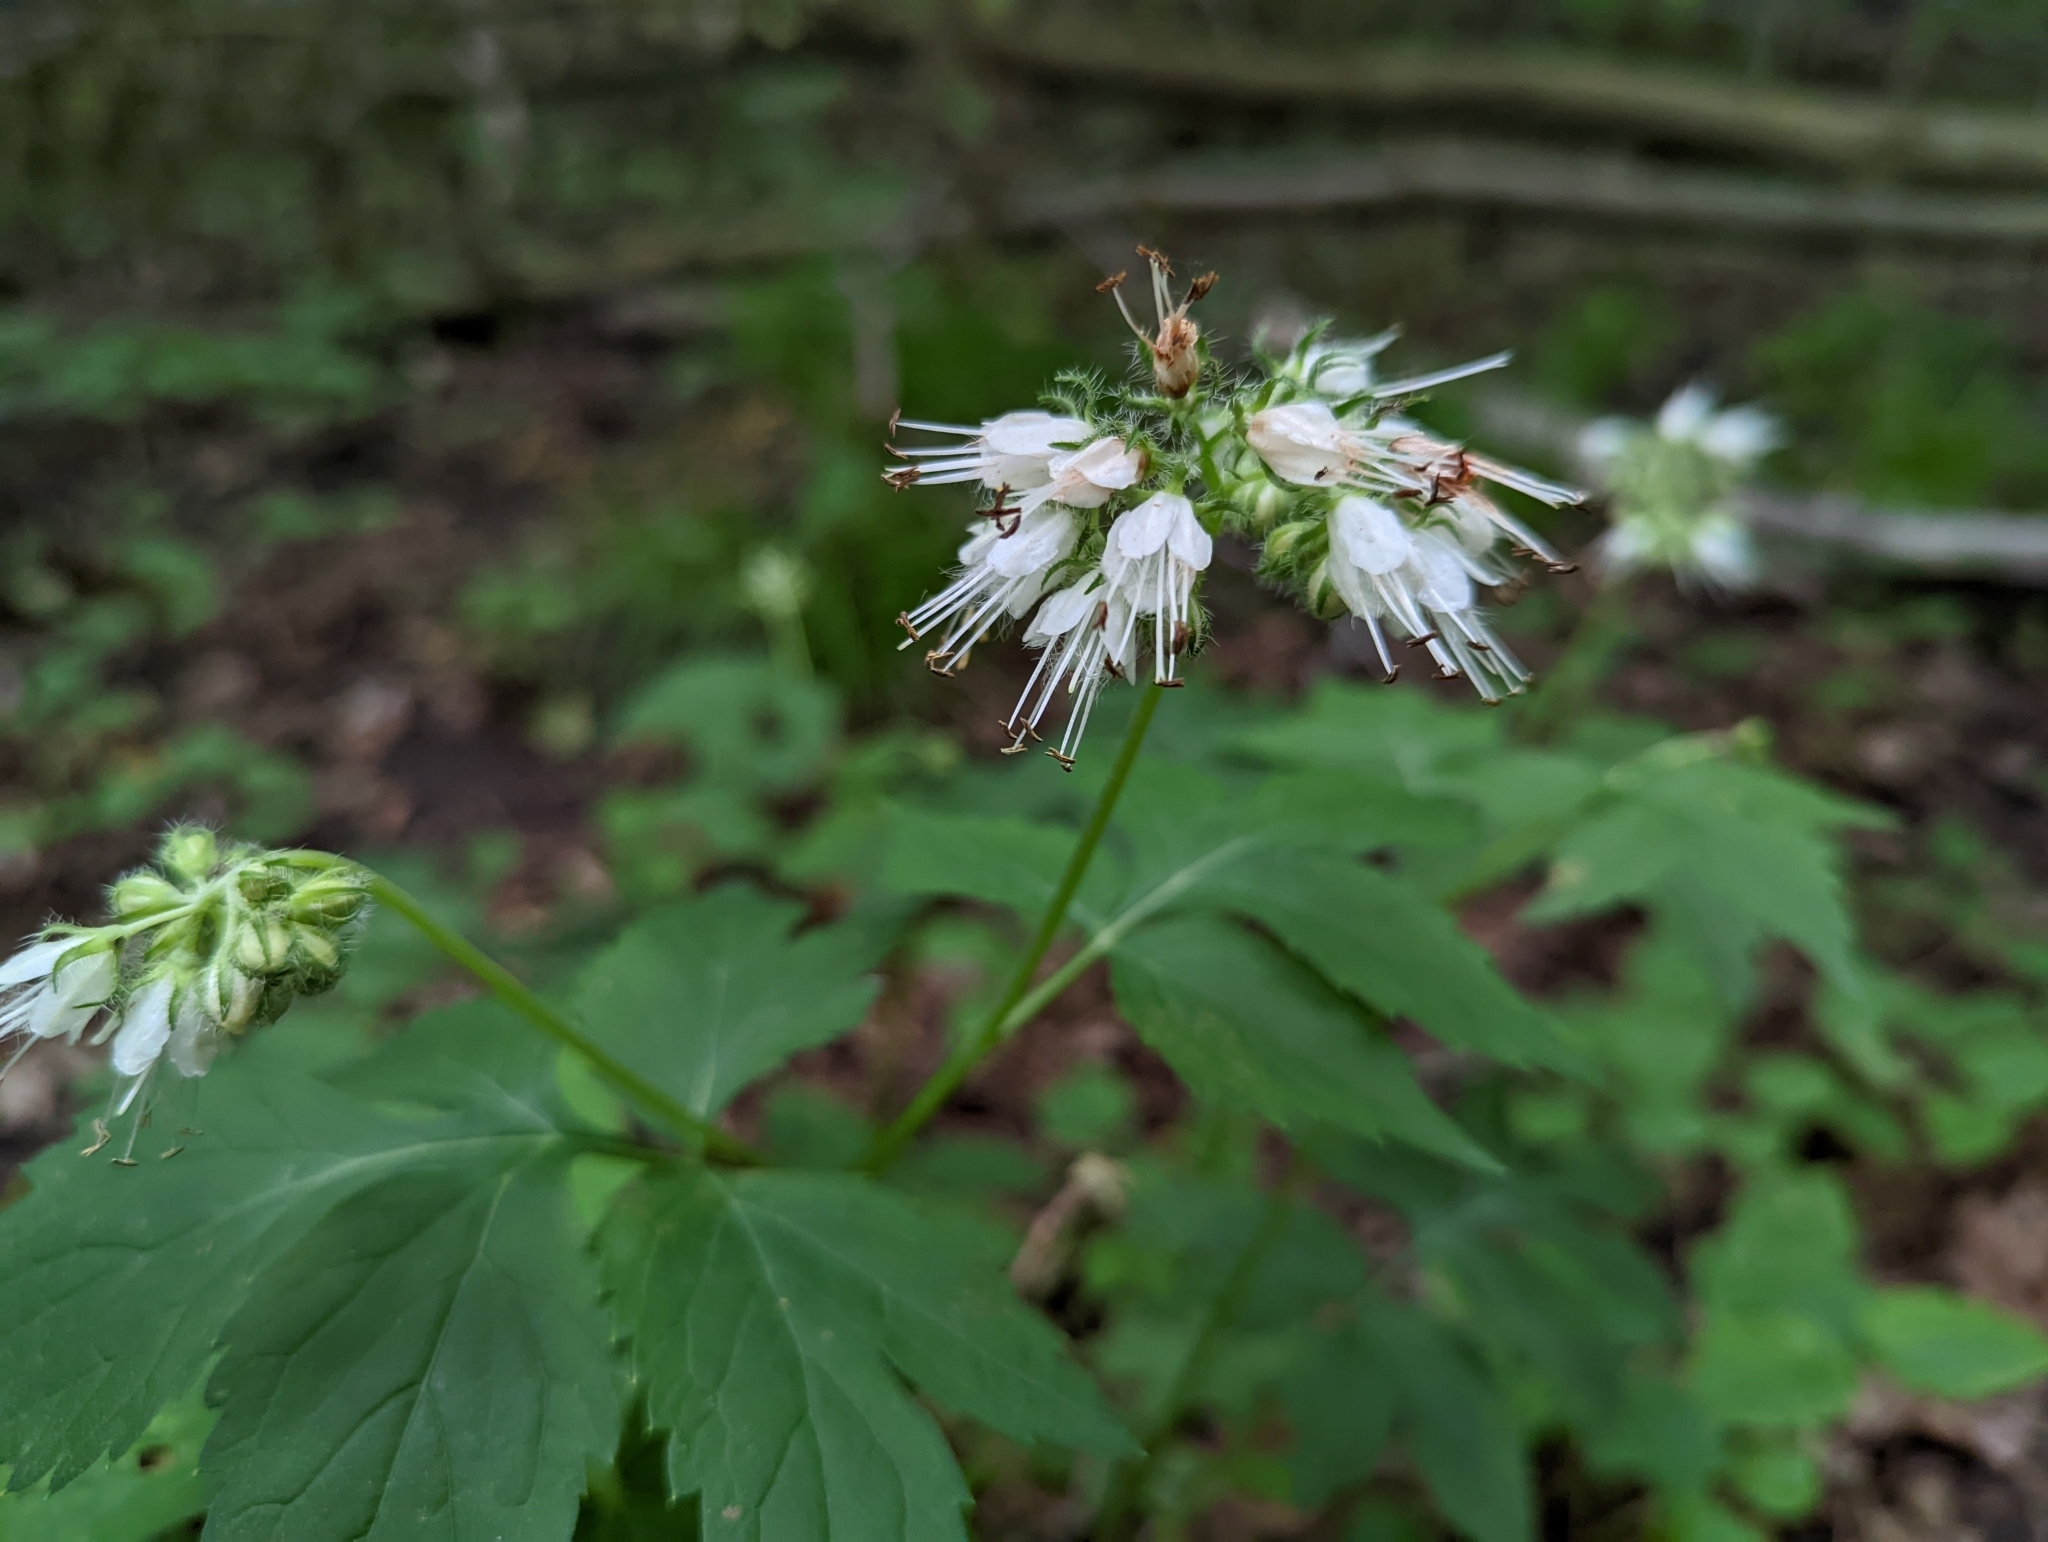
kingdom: Plantae
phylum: Tracheophyta
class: Magnoliopsida
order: Boraginales
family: Hydrophyllaceae
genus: Hydrophyllum
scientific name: Hydrophyllum virginianum
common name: Virginia waterleaf
